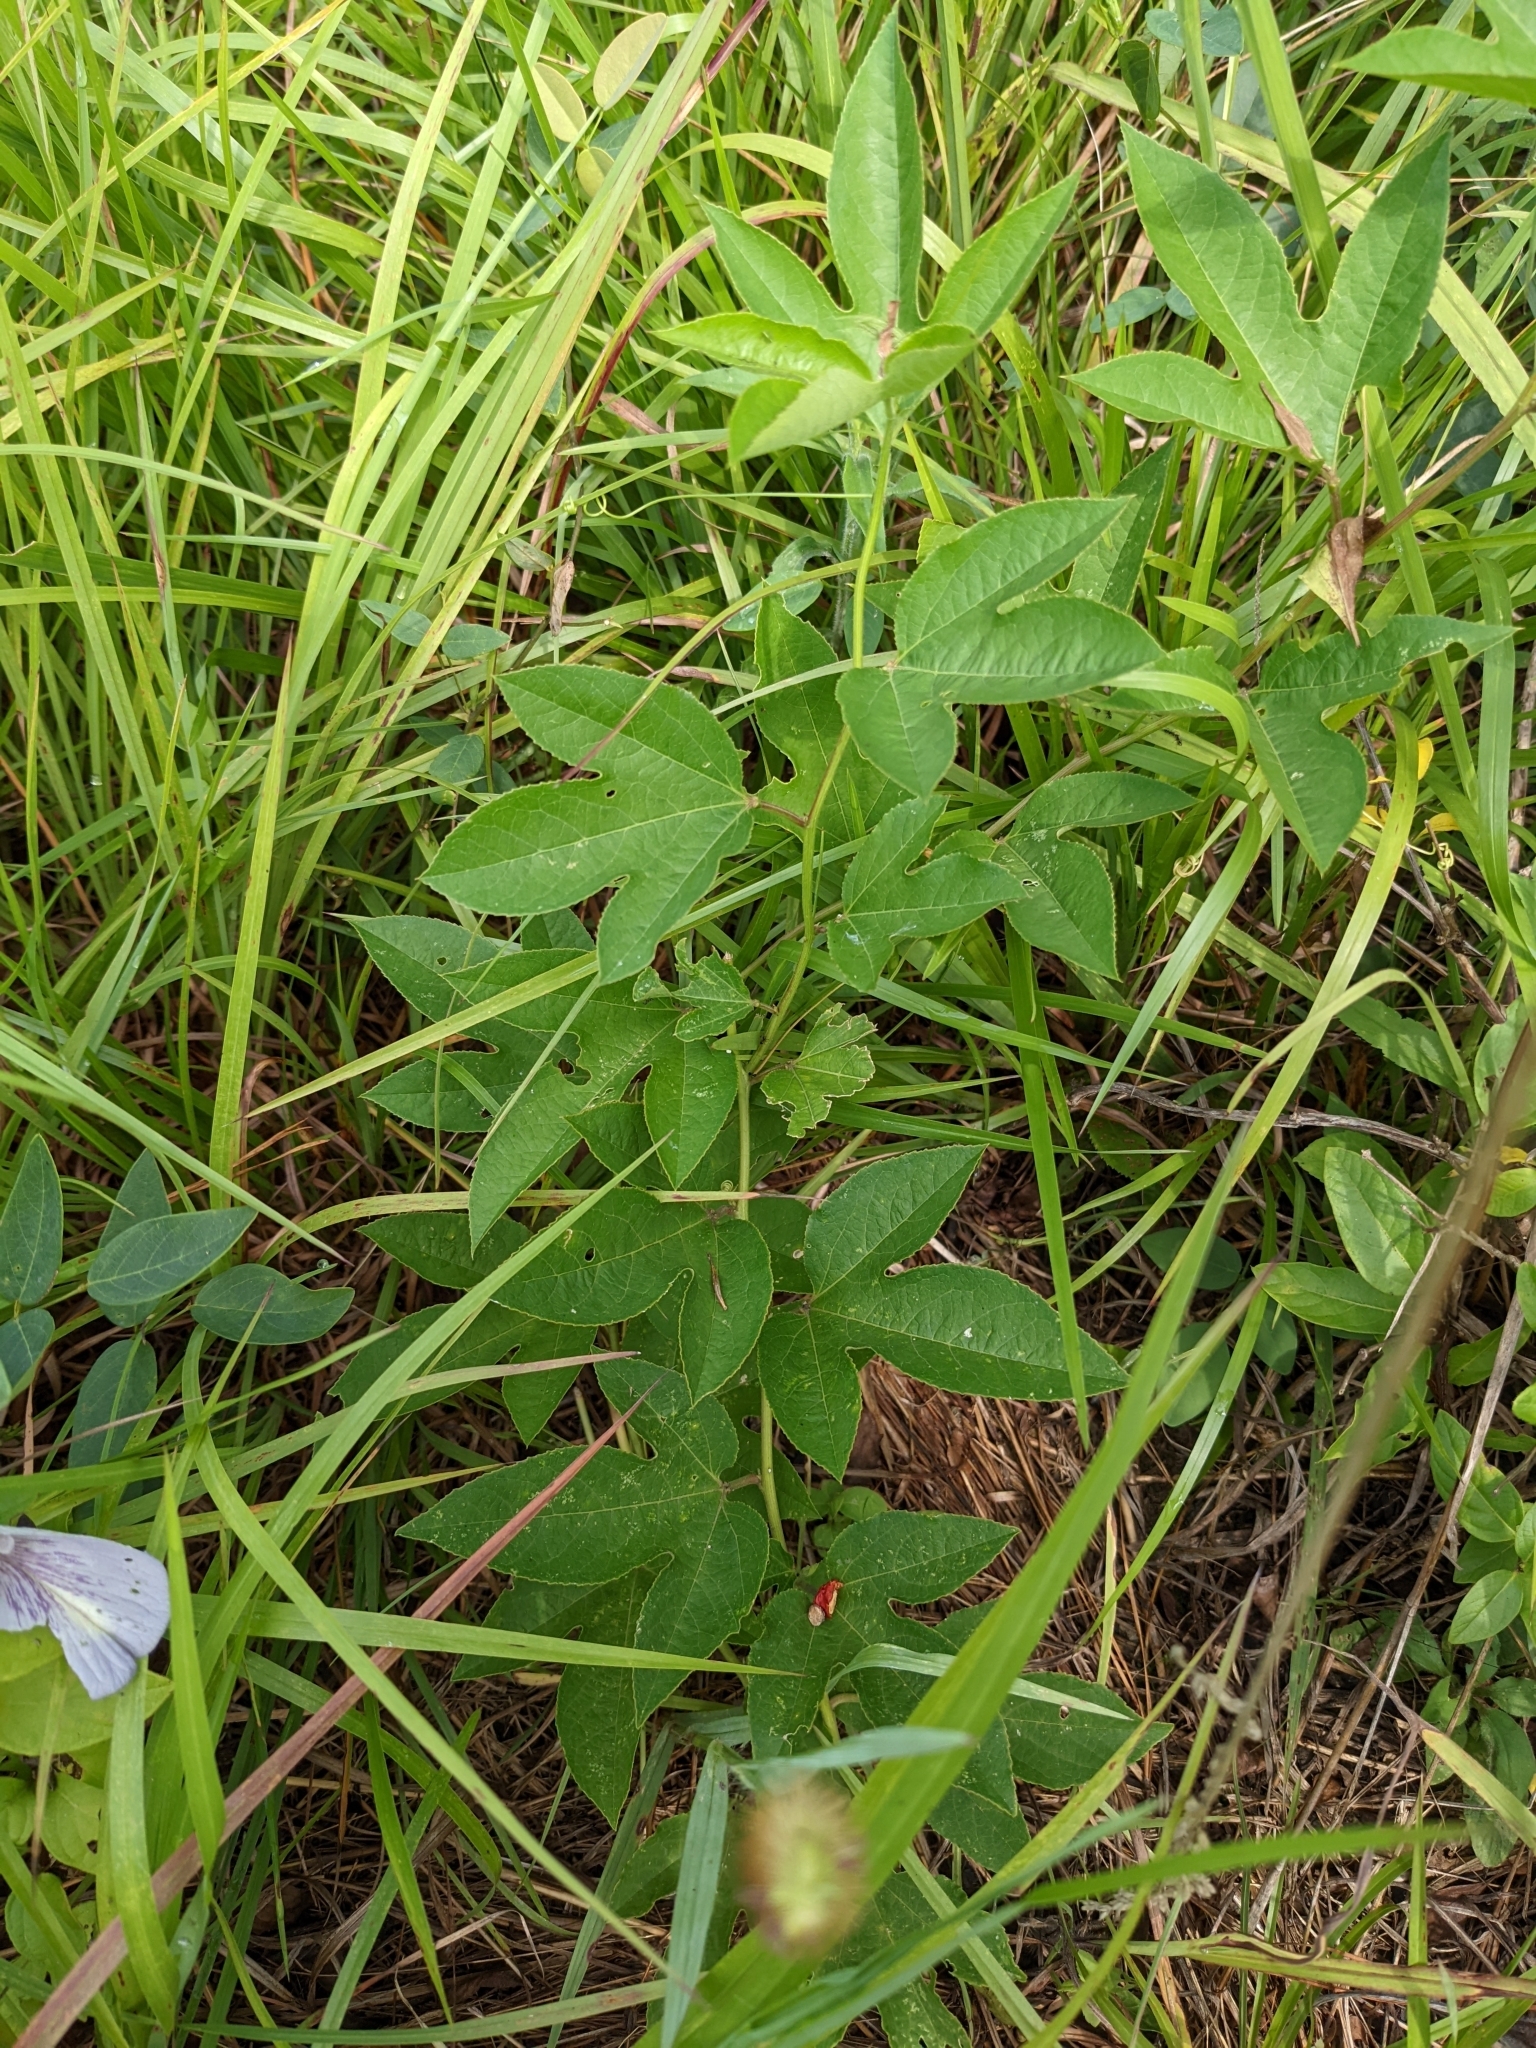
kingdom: Plantae
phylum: Tracheophyta
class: Magnoliopsida
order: Malpighiales
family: Passifloraceae
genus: Passiflora
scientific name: Passiflora incarnata
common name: Apricot-vine
